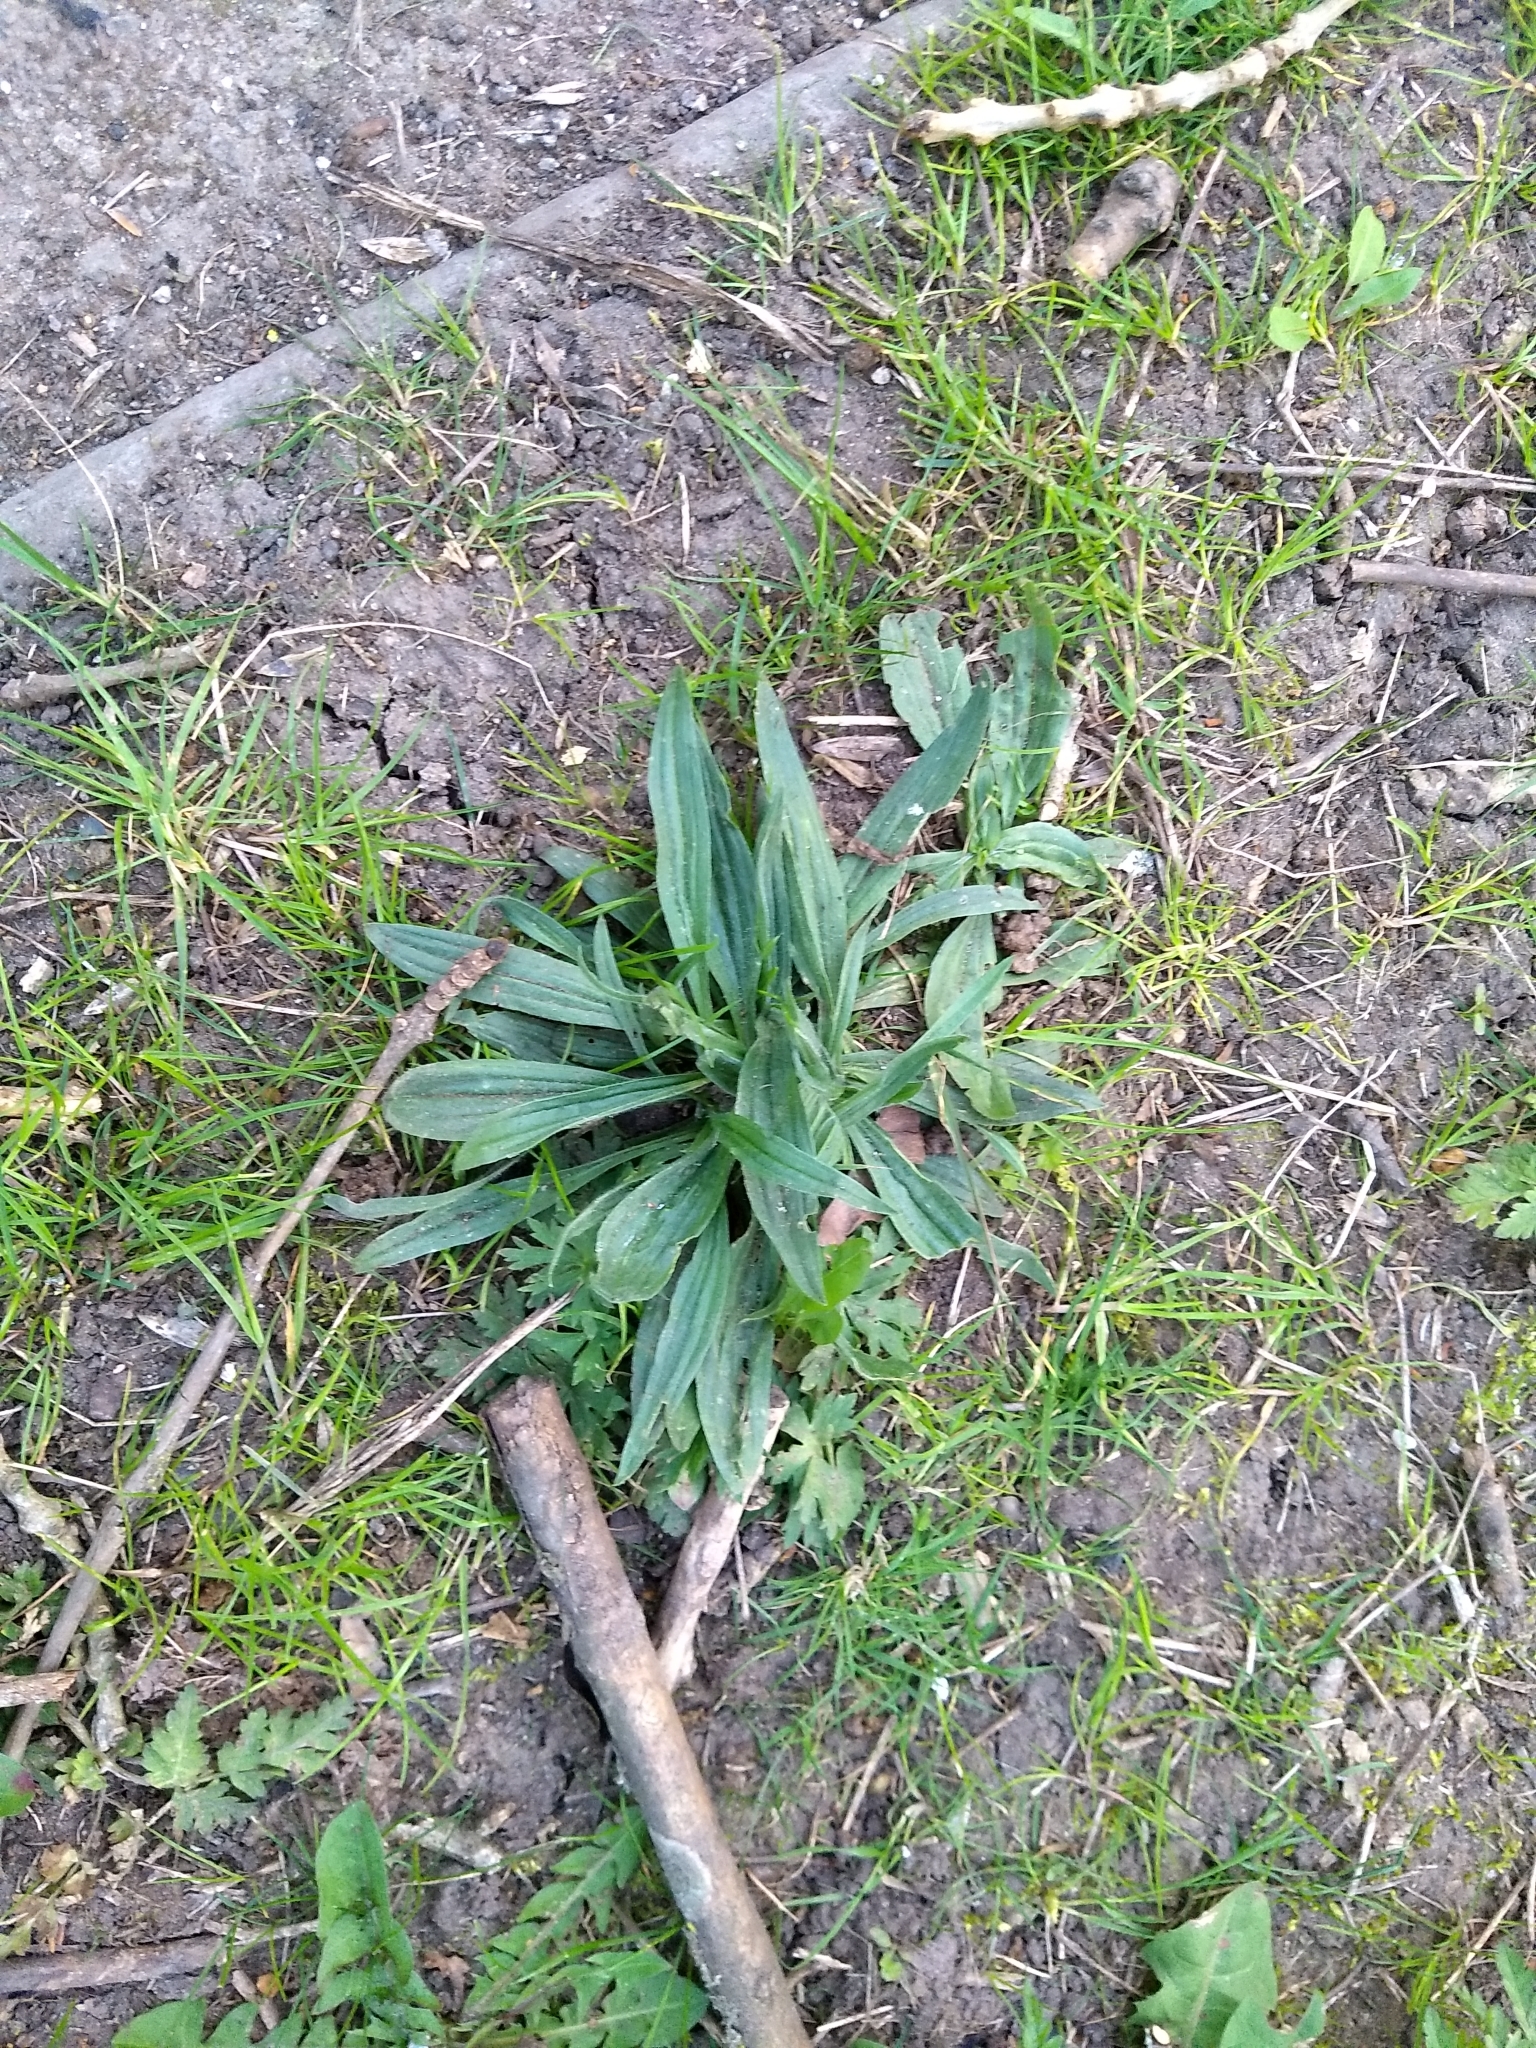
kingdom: Plantae
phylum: Tracheophyta
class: Magnoliopsida
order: Lamiales
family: Plantaginaceae
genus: Plantago
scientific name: Plantago lanceolata
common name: Ribwort plantain
